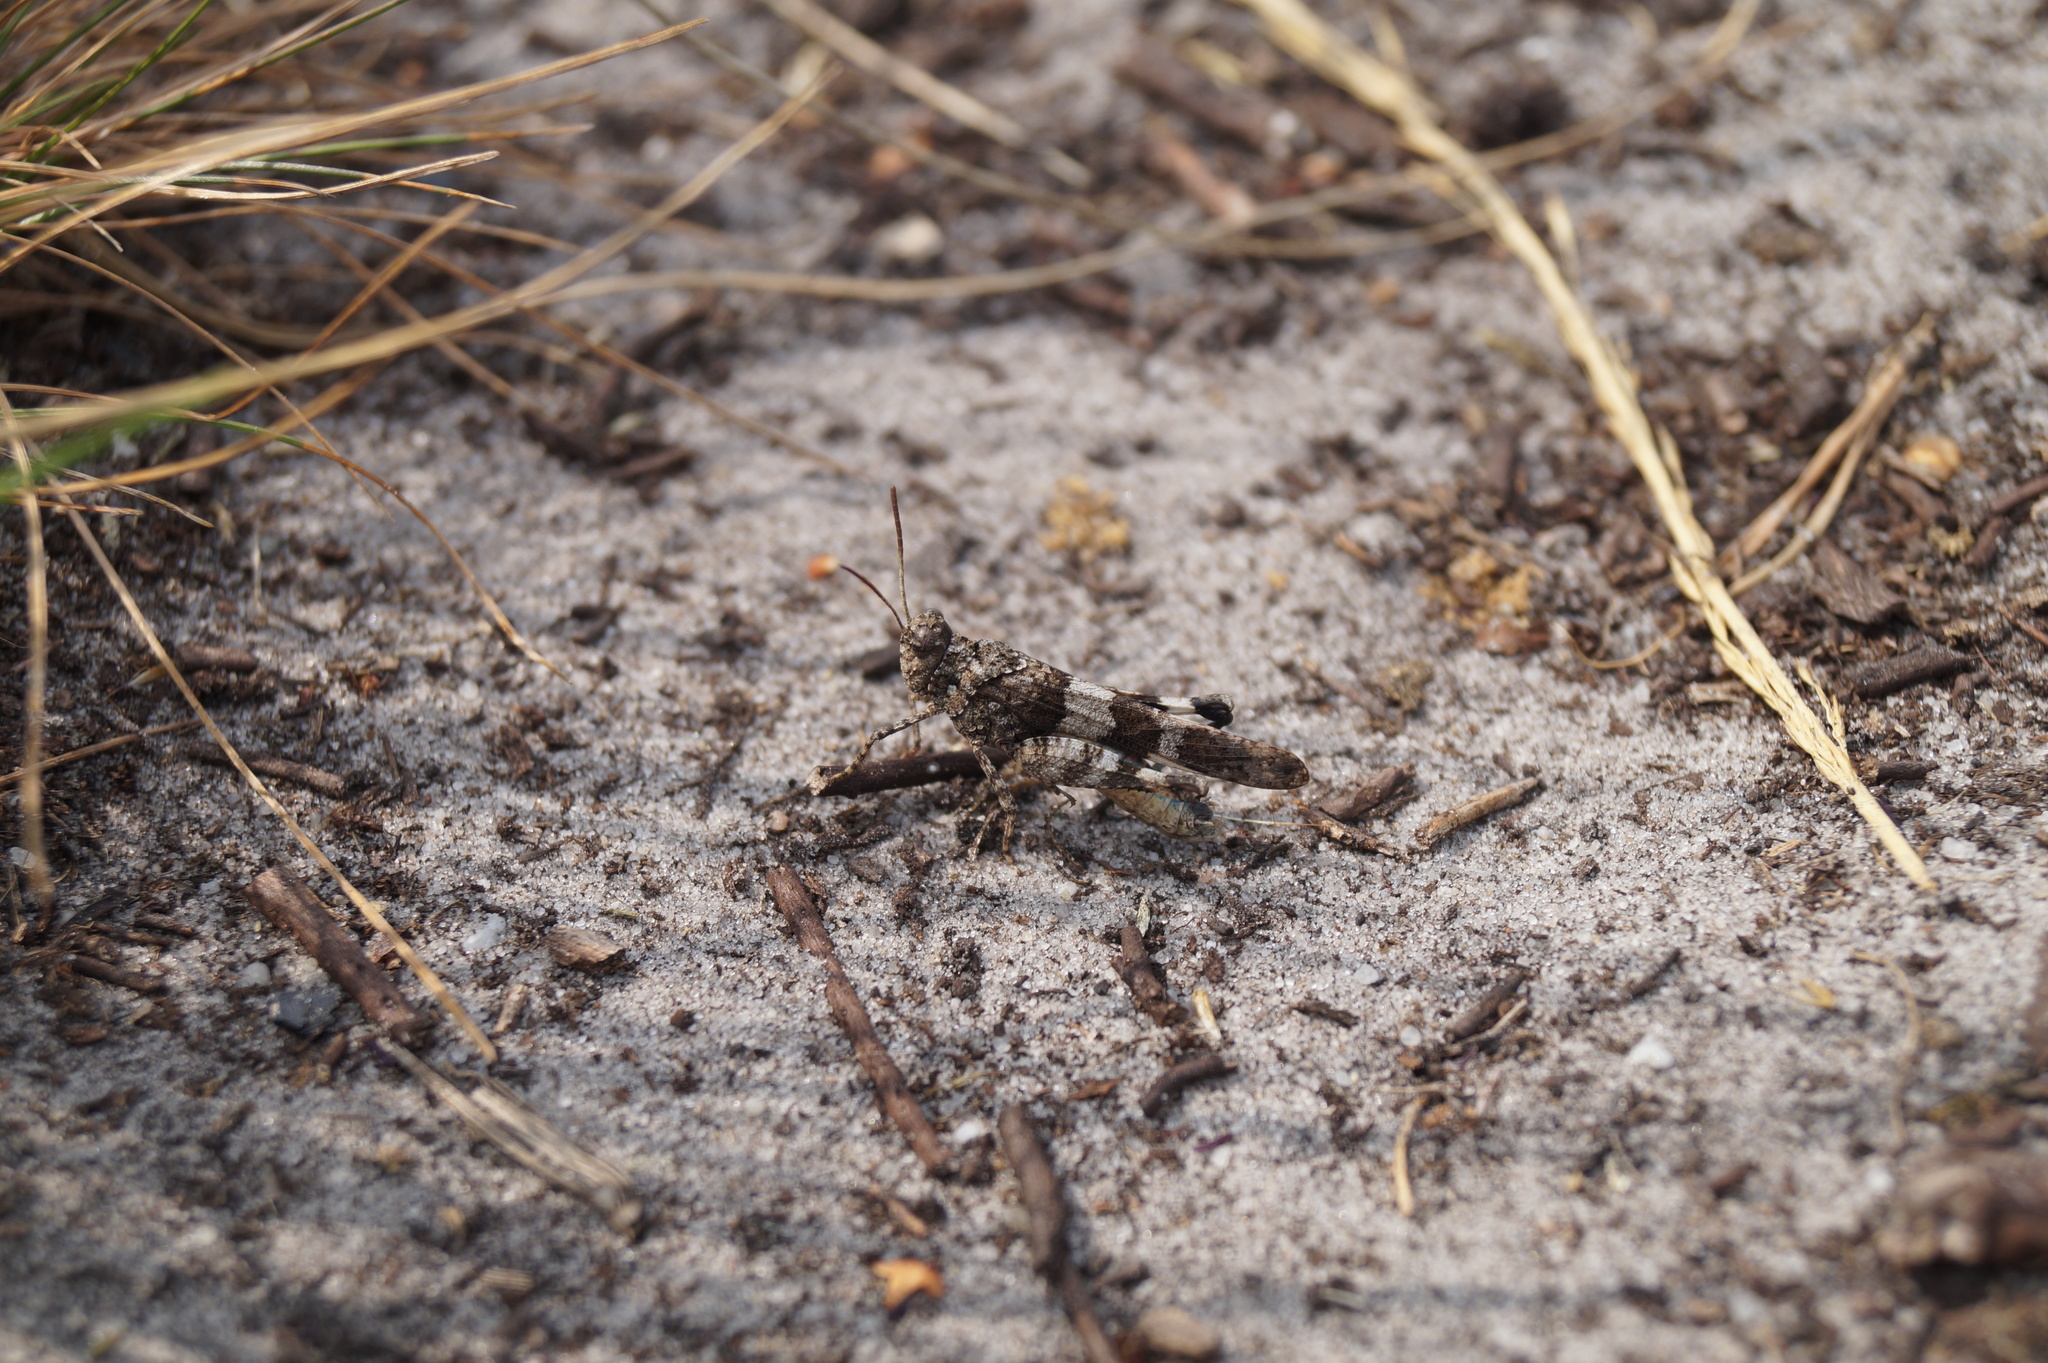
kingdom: Animalia
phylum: Arthropoda
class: Insecta
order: Orthoptera
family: Acrididae
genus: Oedipoda
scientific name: Oedipoda caerulescens
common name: Blue-winged grasshopper
